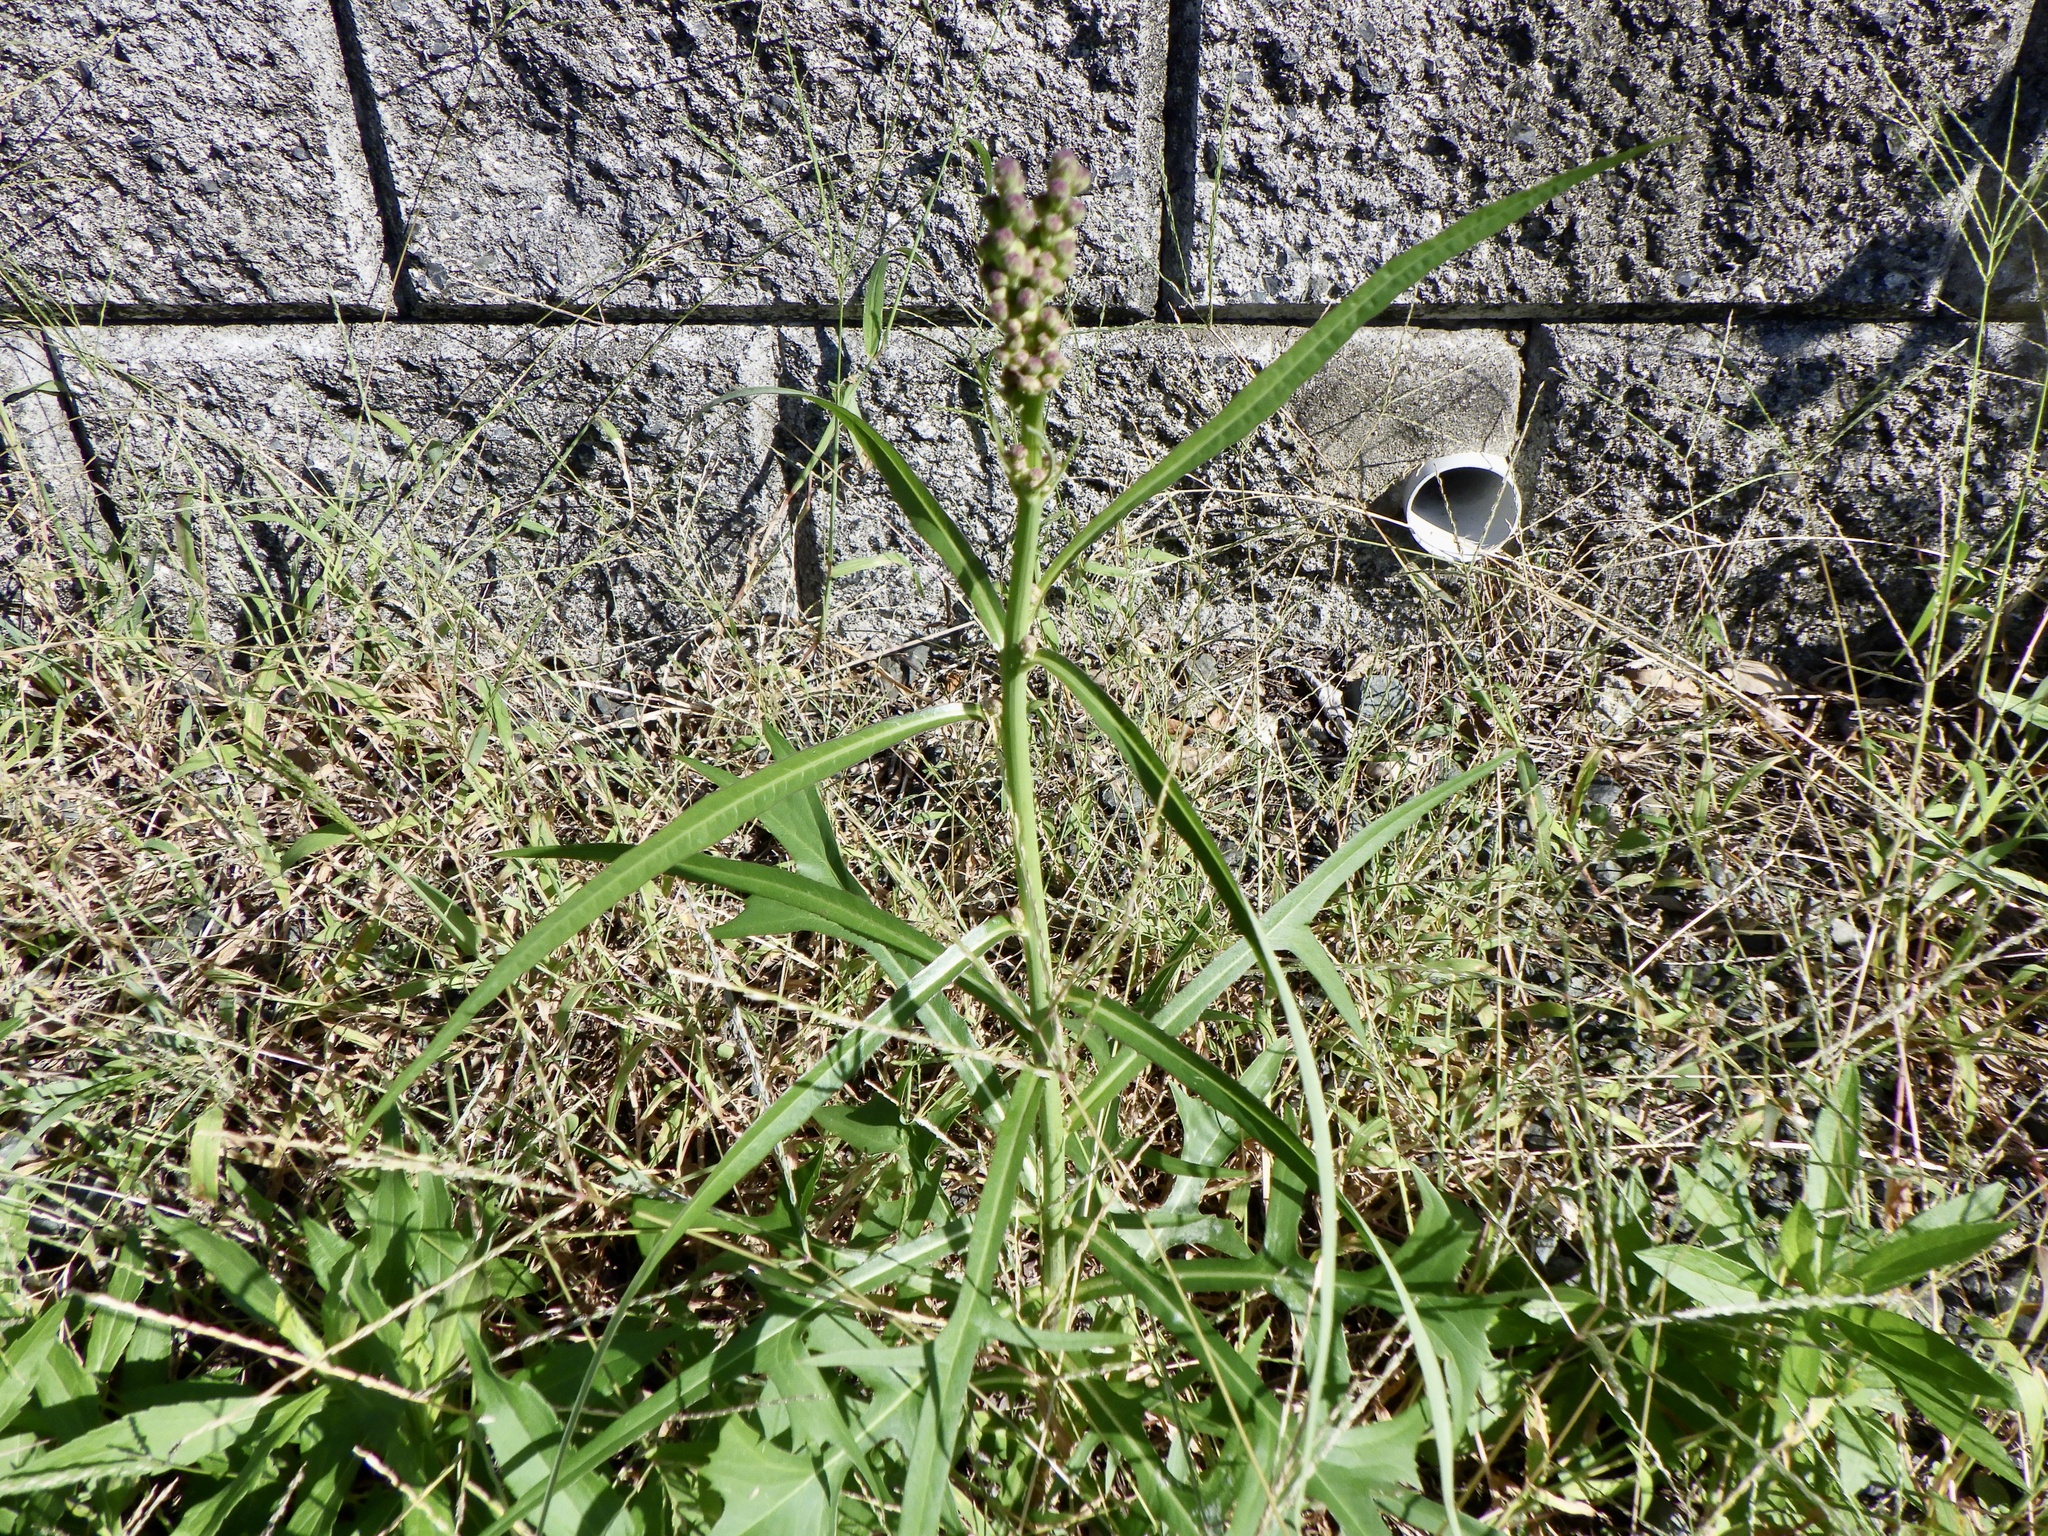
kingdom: Plantae
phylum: Tracheophyta
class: Magnoliopsida
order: Asterales
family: Asteraceae
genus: Lactuca
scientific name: Lactuca indica
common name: Wild lettuce
